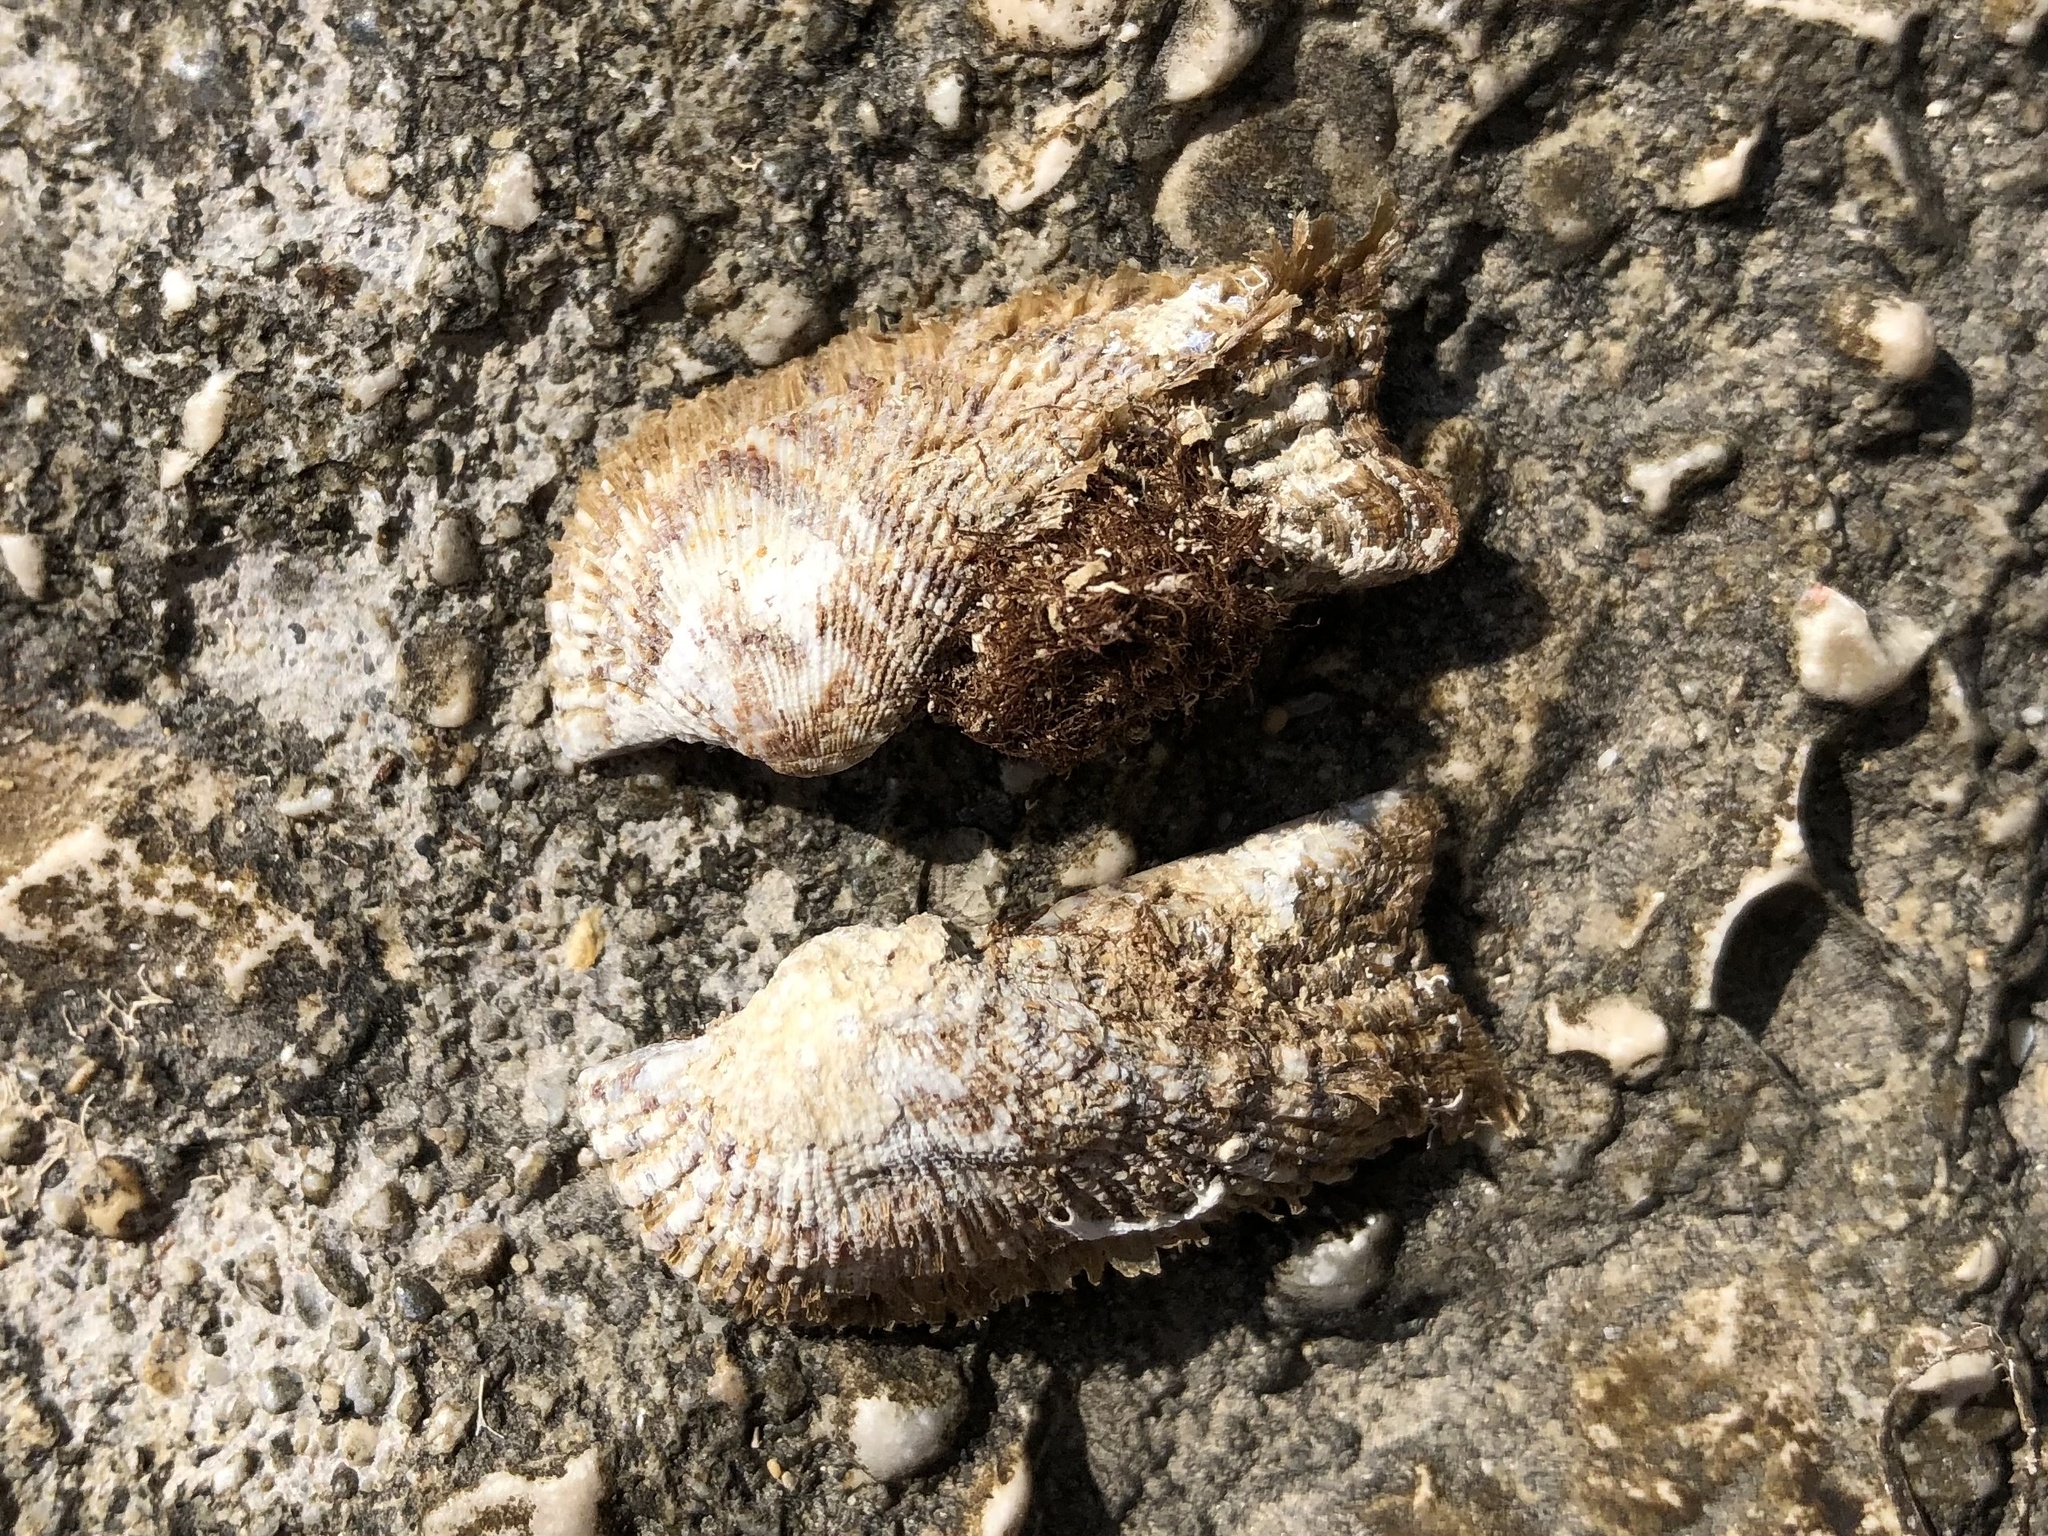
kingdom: Animalia
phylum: Mollusca
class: Bivalvia
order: Arcida
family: Arcidae
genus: Arca
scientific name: Arca noae
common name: Noah's arch
